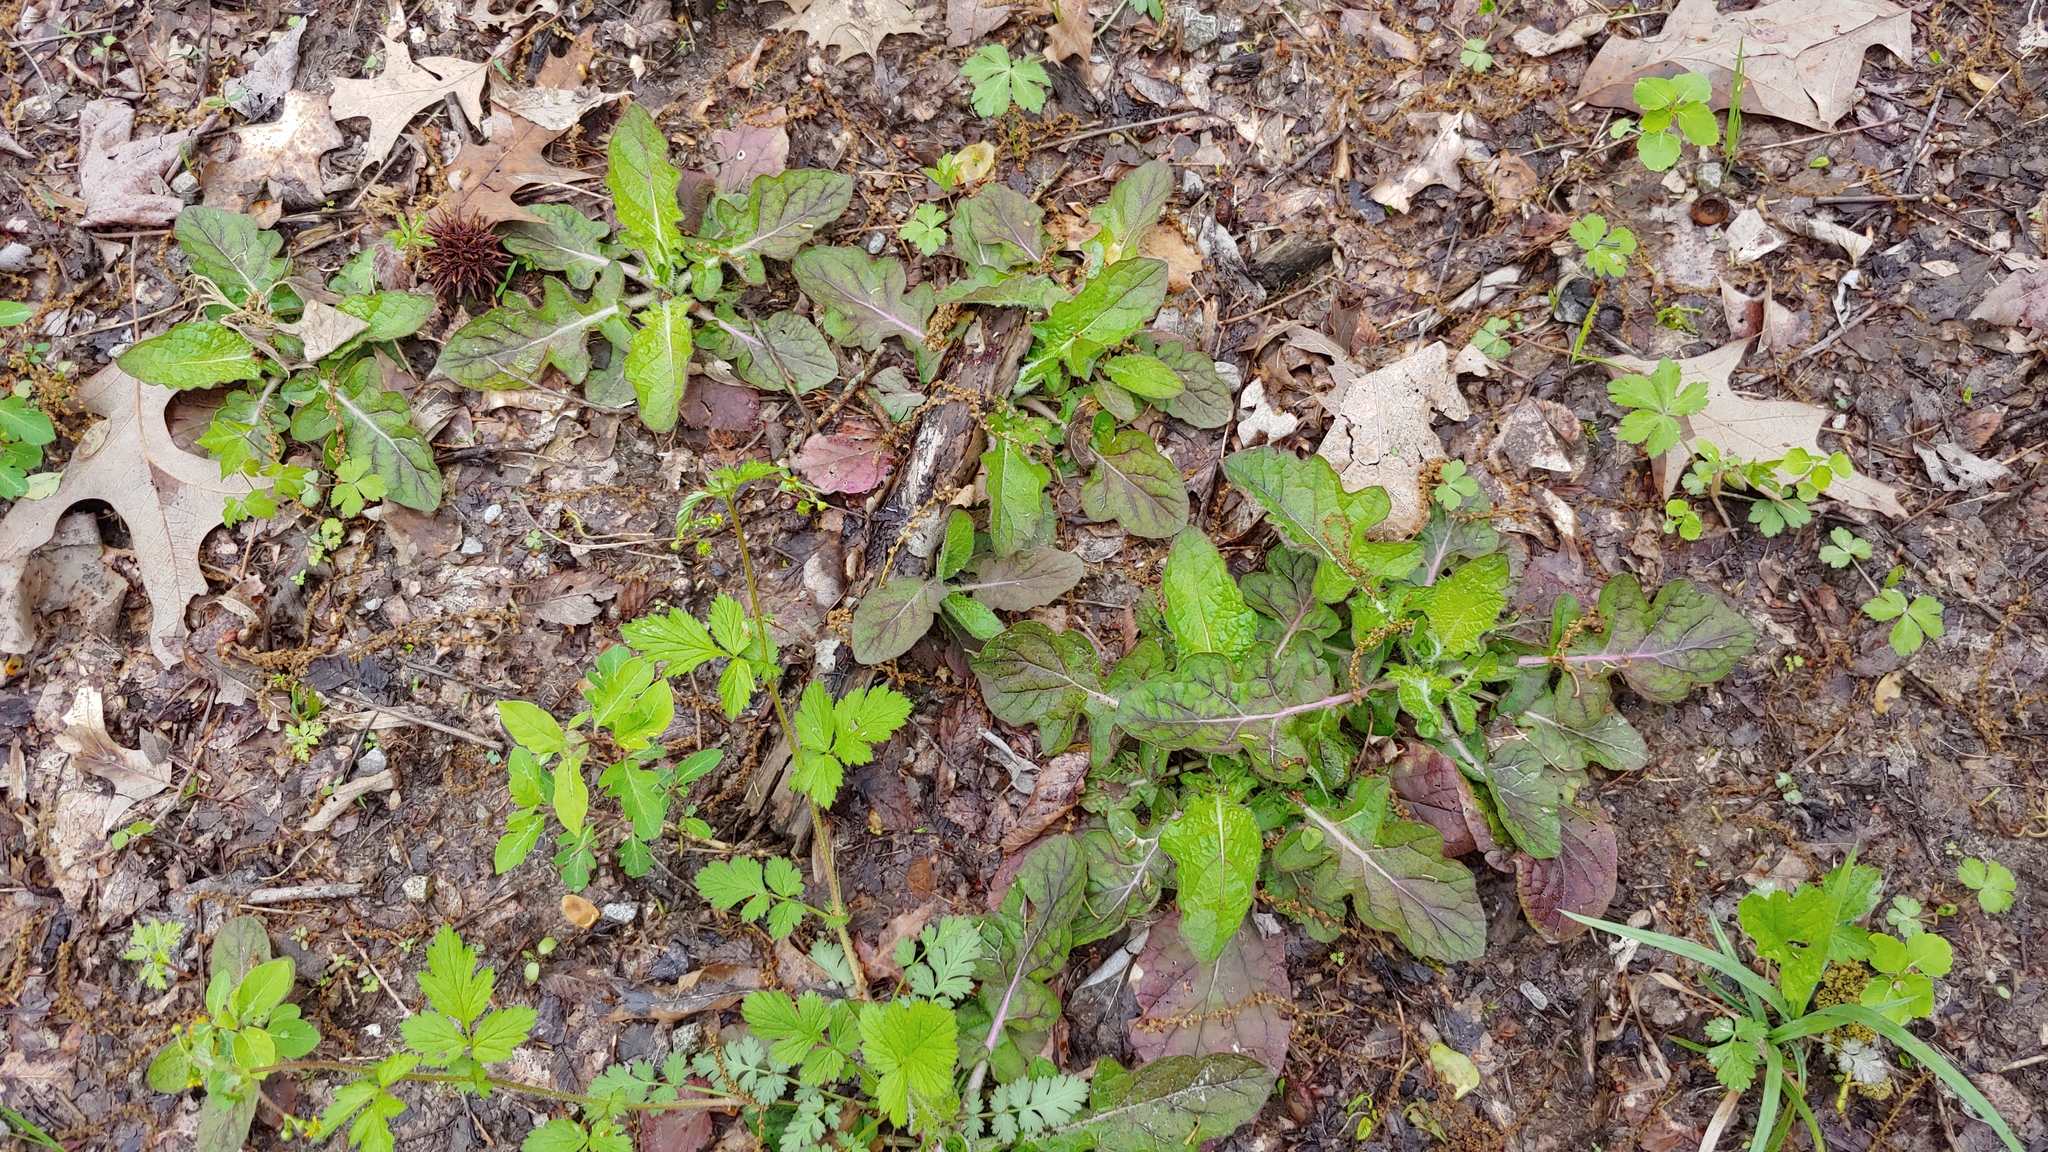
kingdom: Plantae
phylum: Tracheophyta
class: Magnoliopsida
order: Lamiales
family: Lamiaceae
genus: Salvia
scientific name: Salvia lyrata
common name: Cancerweed
